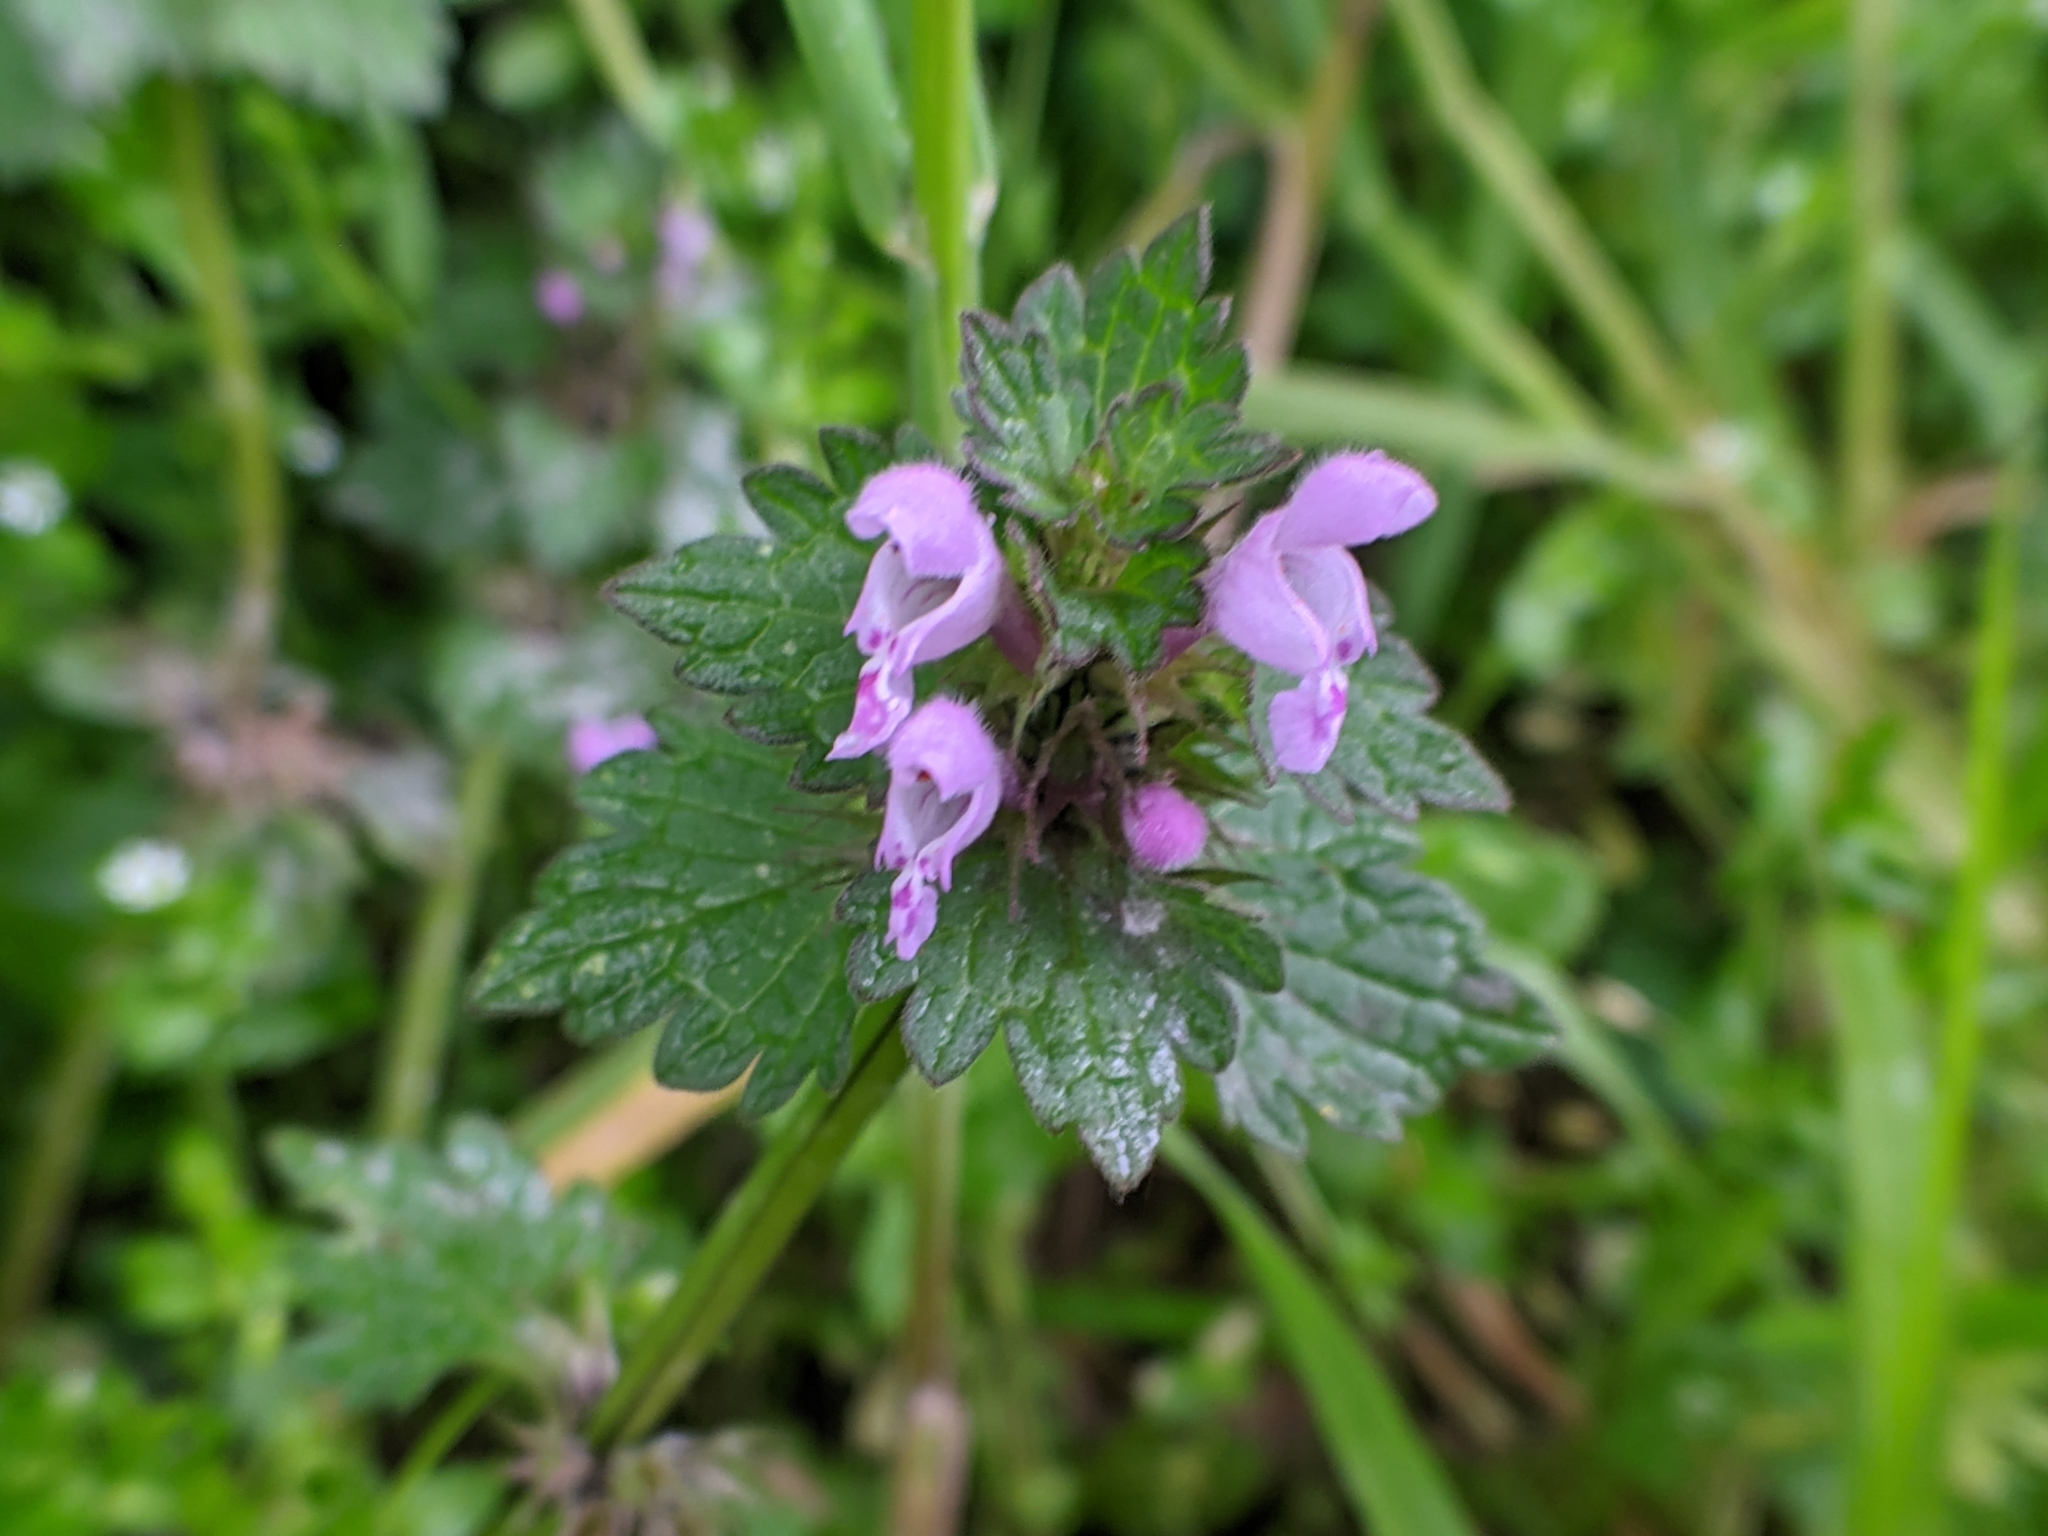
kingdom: Plantae
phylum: Tracheophyta
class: Magnoliopsida
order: Lamiales
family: Lamiaceae
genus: Lamium
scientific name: Lamium hybridum
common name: Cut-leaved dead-nettle
